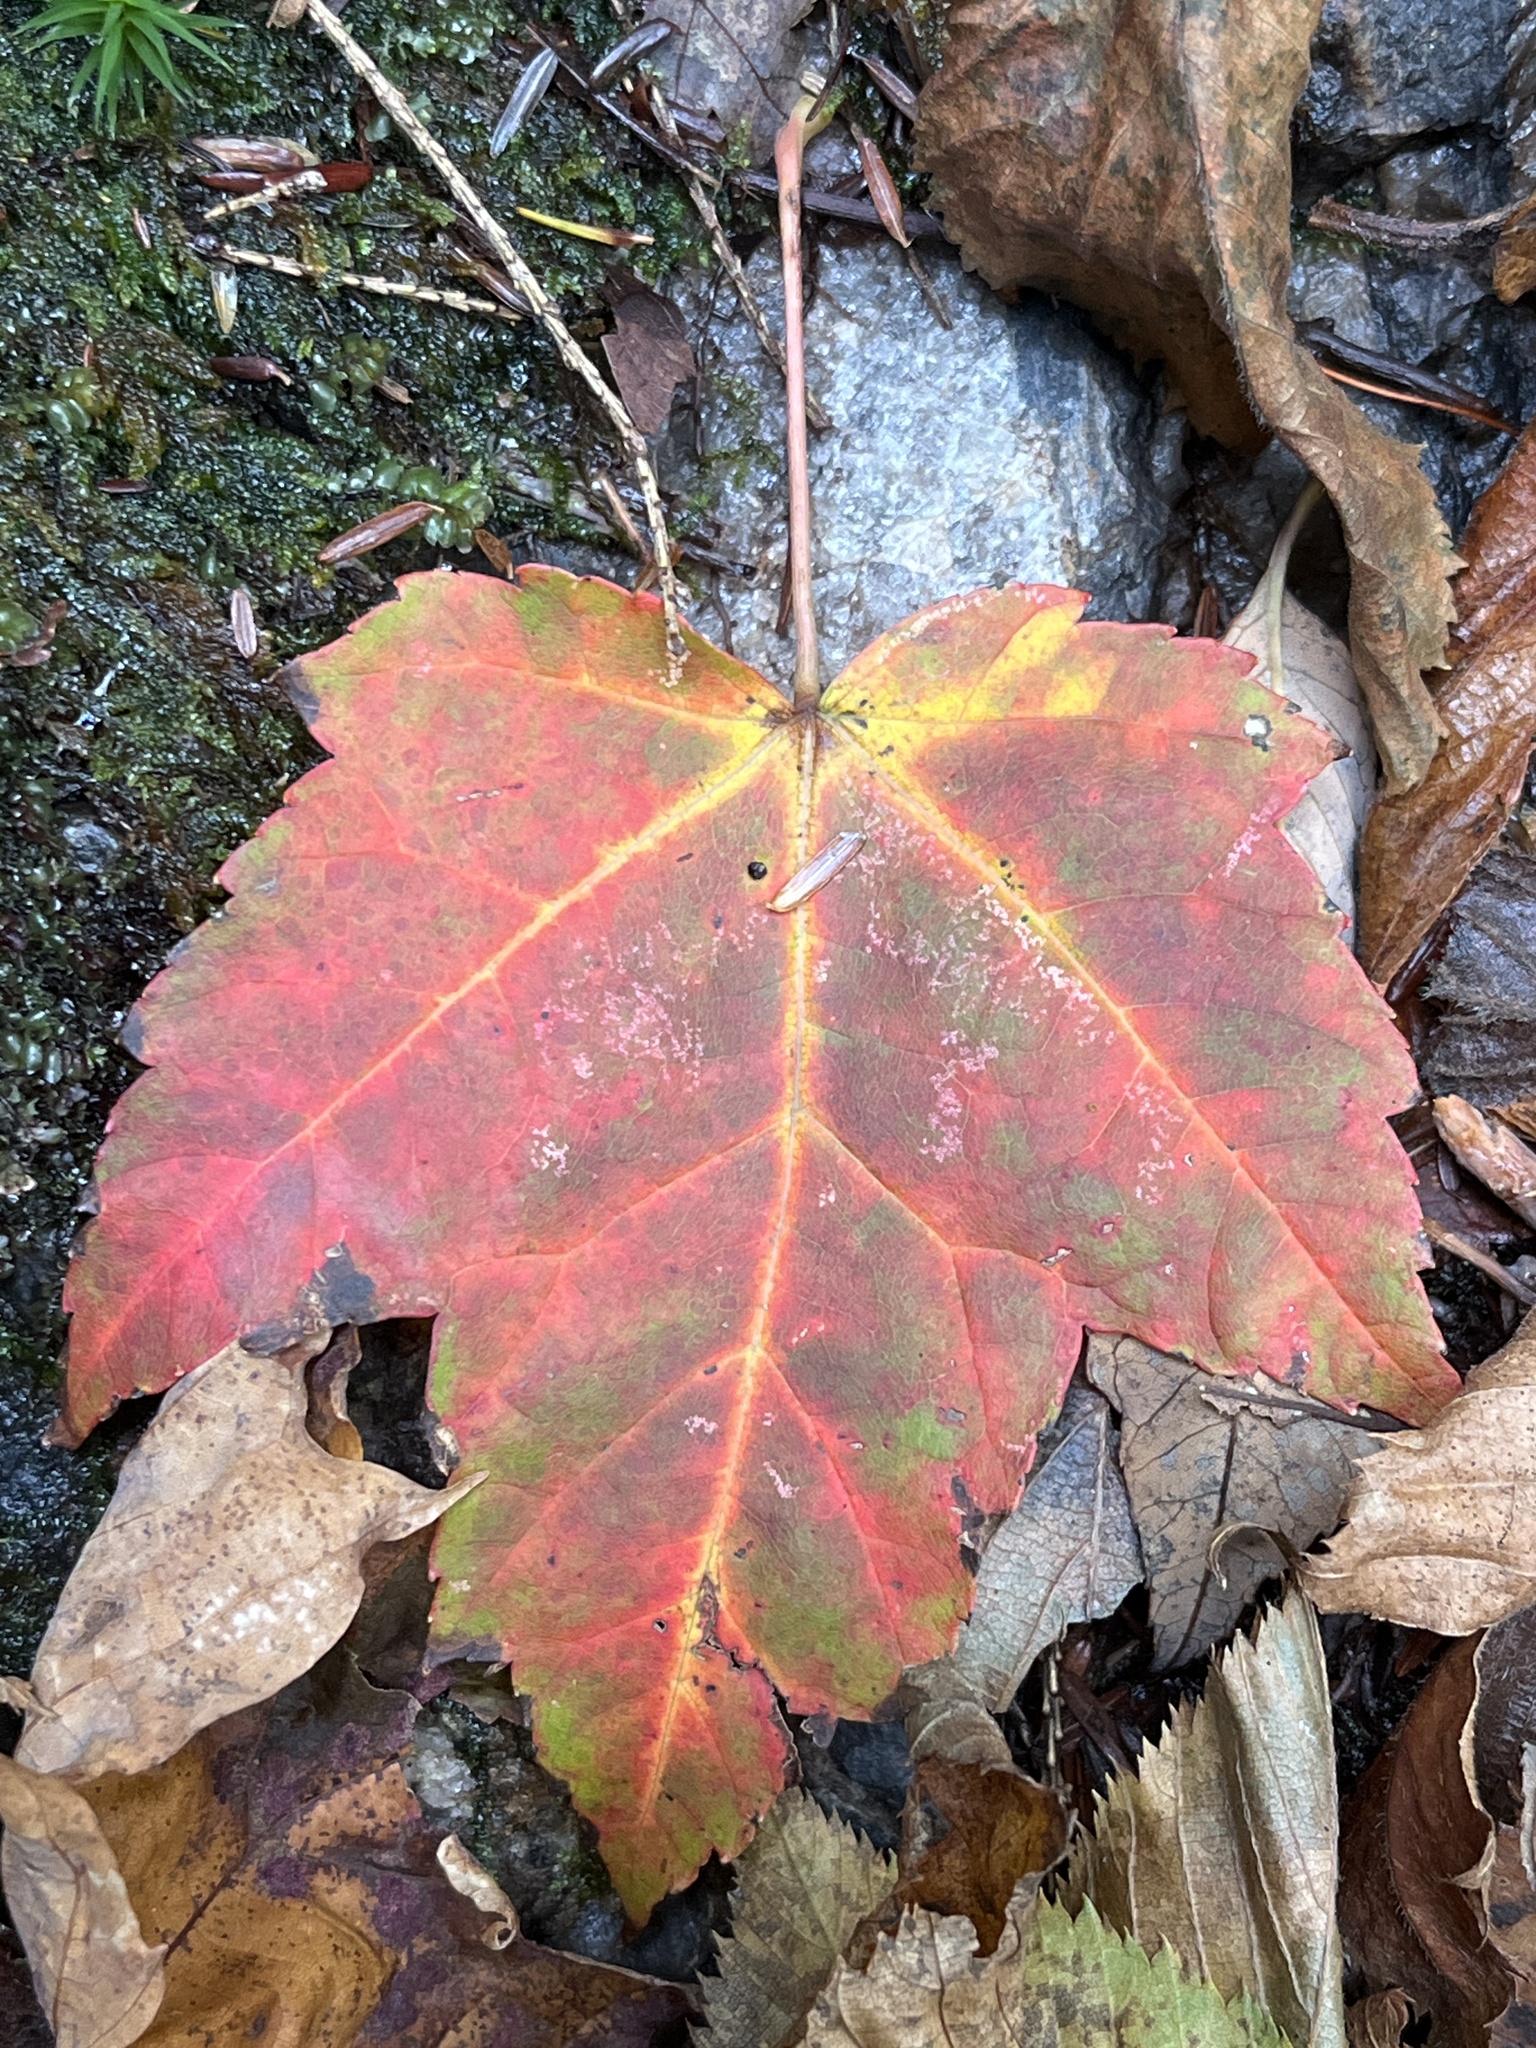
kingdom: Plantae
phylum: Tracheophyta
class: Magnoliopsida
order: Sapindales
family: Sapindaceae
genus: Acer
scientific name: Acer rubrum
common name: Red maple
